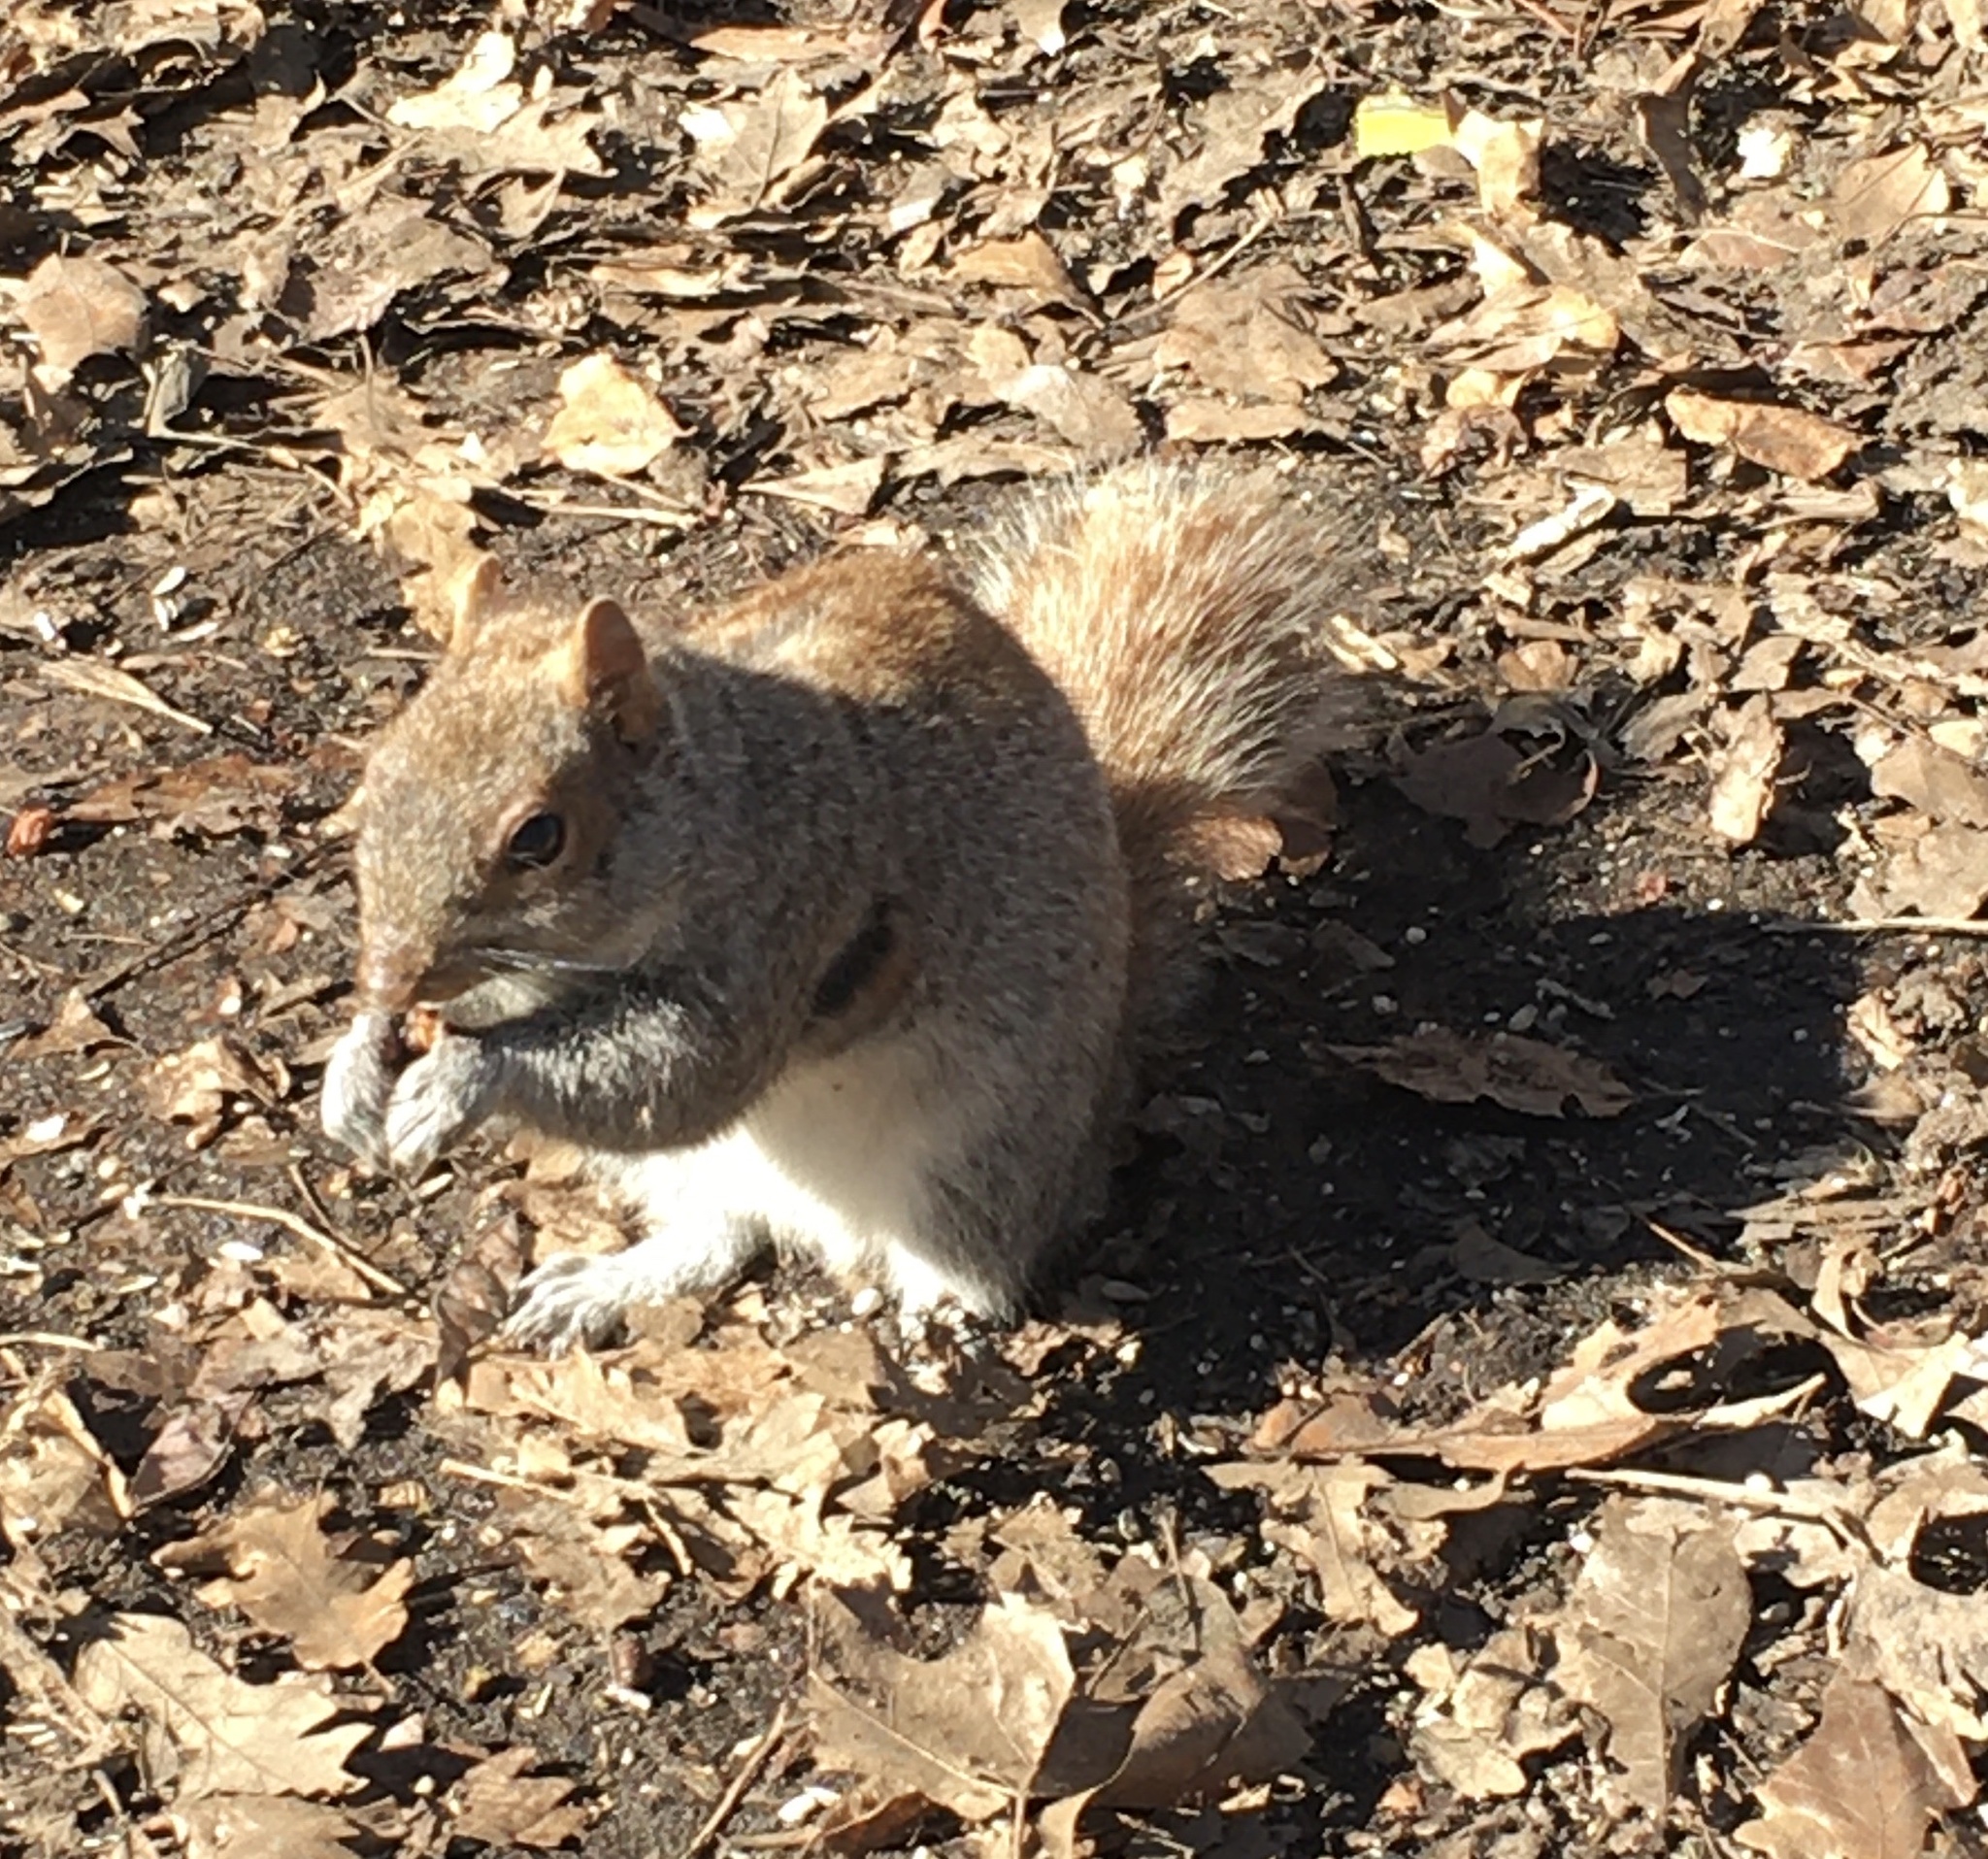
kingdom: Animalia
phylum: Chordata
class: Mammalia
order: Rodentia
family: Sciuridae
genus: Sciurus
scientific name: Sciurus carolinensis
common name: Eastern gray squirrel
